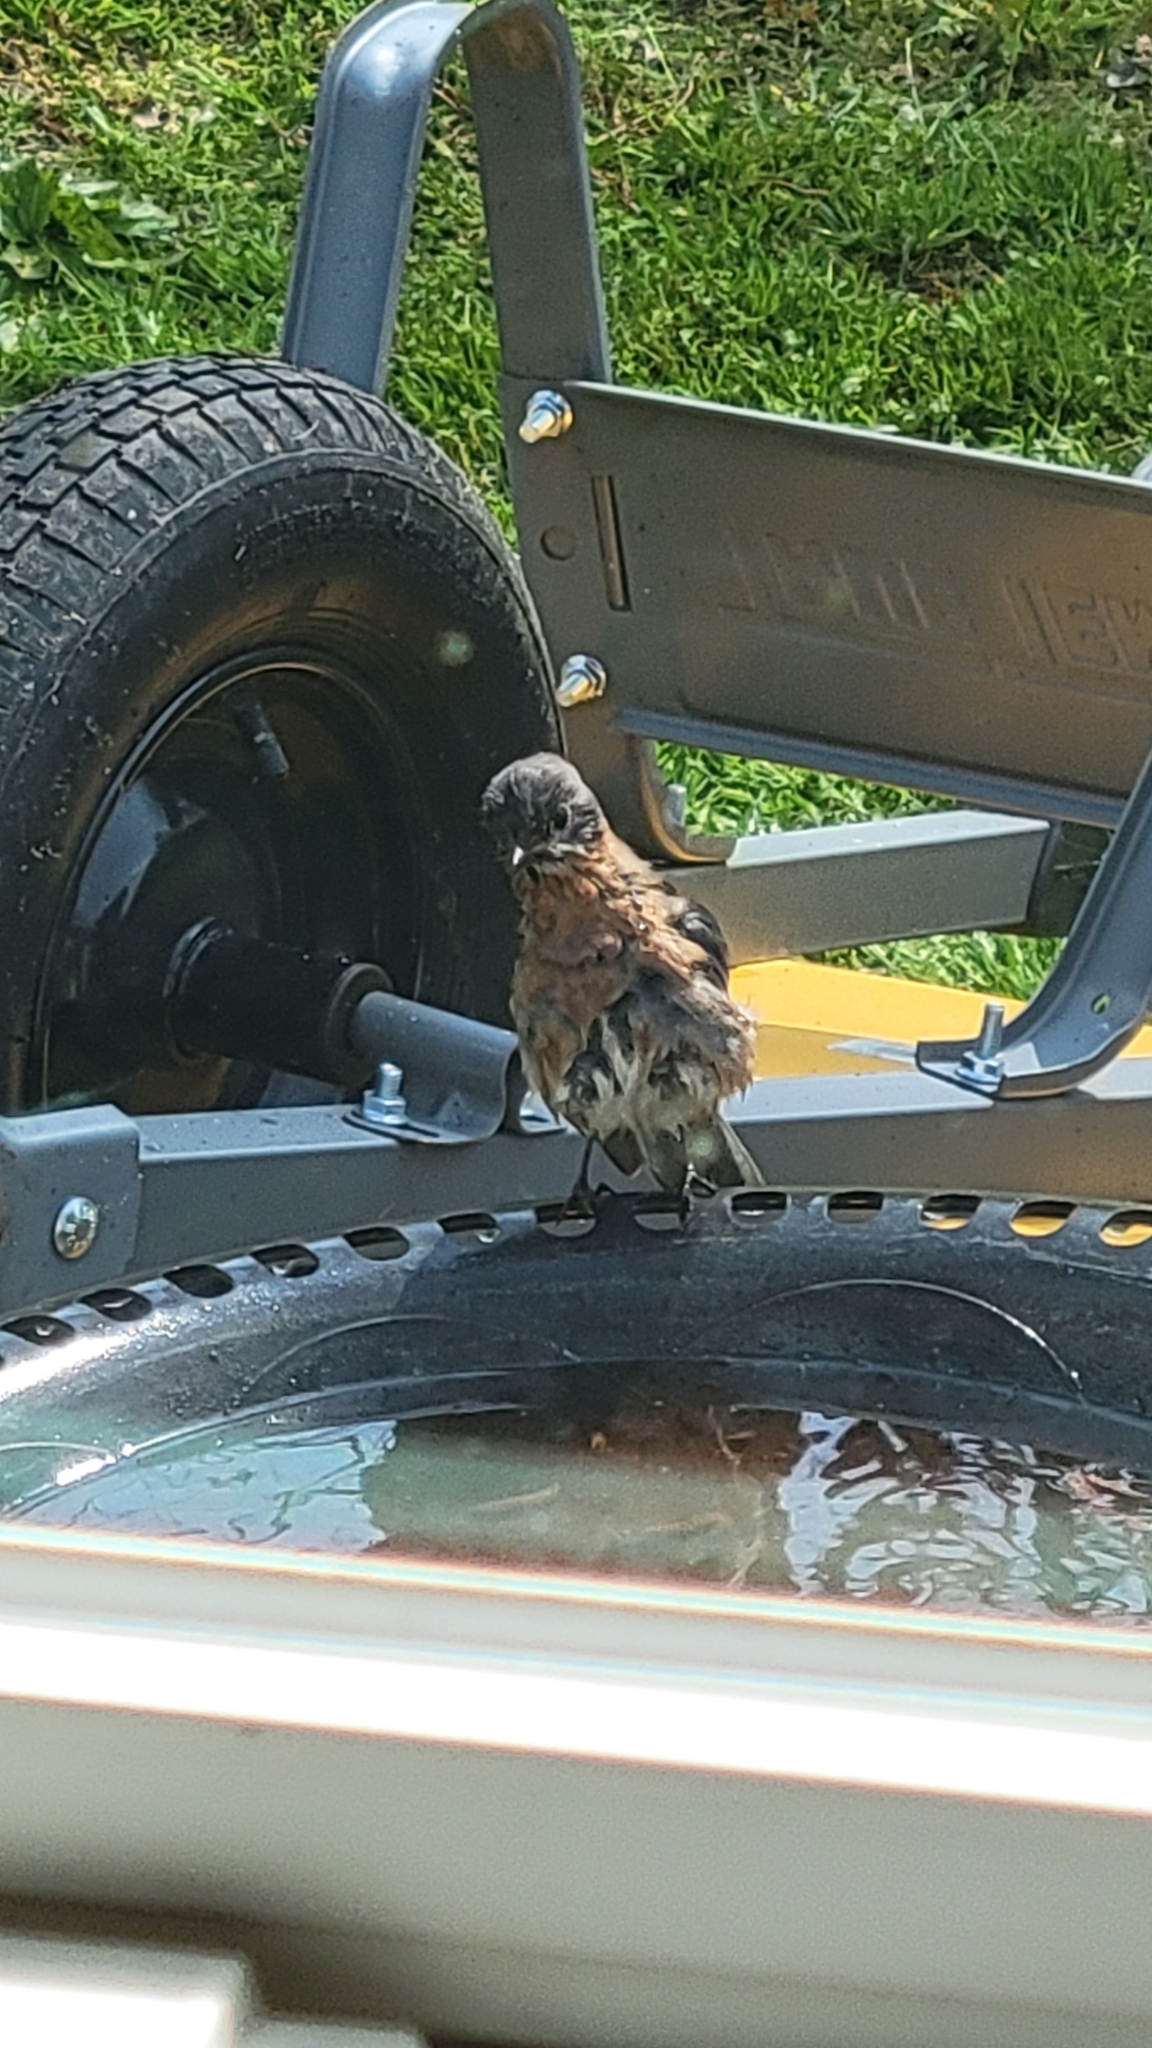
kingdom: Animalia
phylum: Chordata
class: Aves
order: Passeriformes
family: Turdidae
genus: Sialia
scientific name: Sialia sialis
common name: Eastern bluebird
